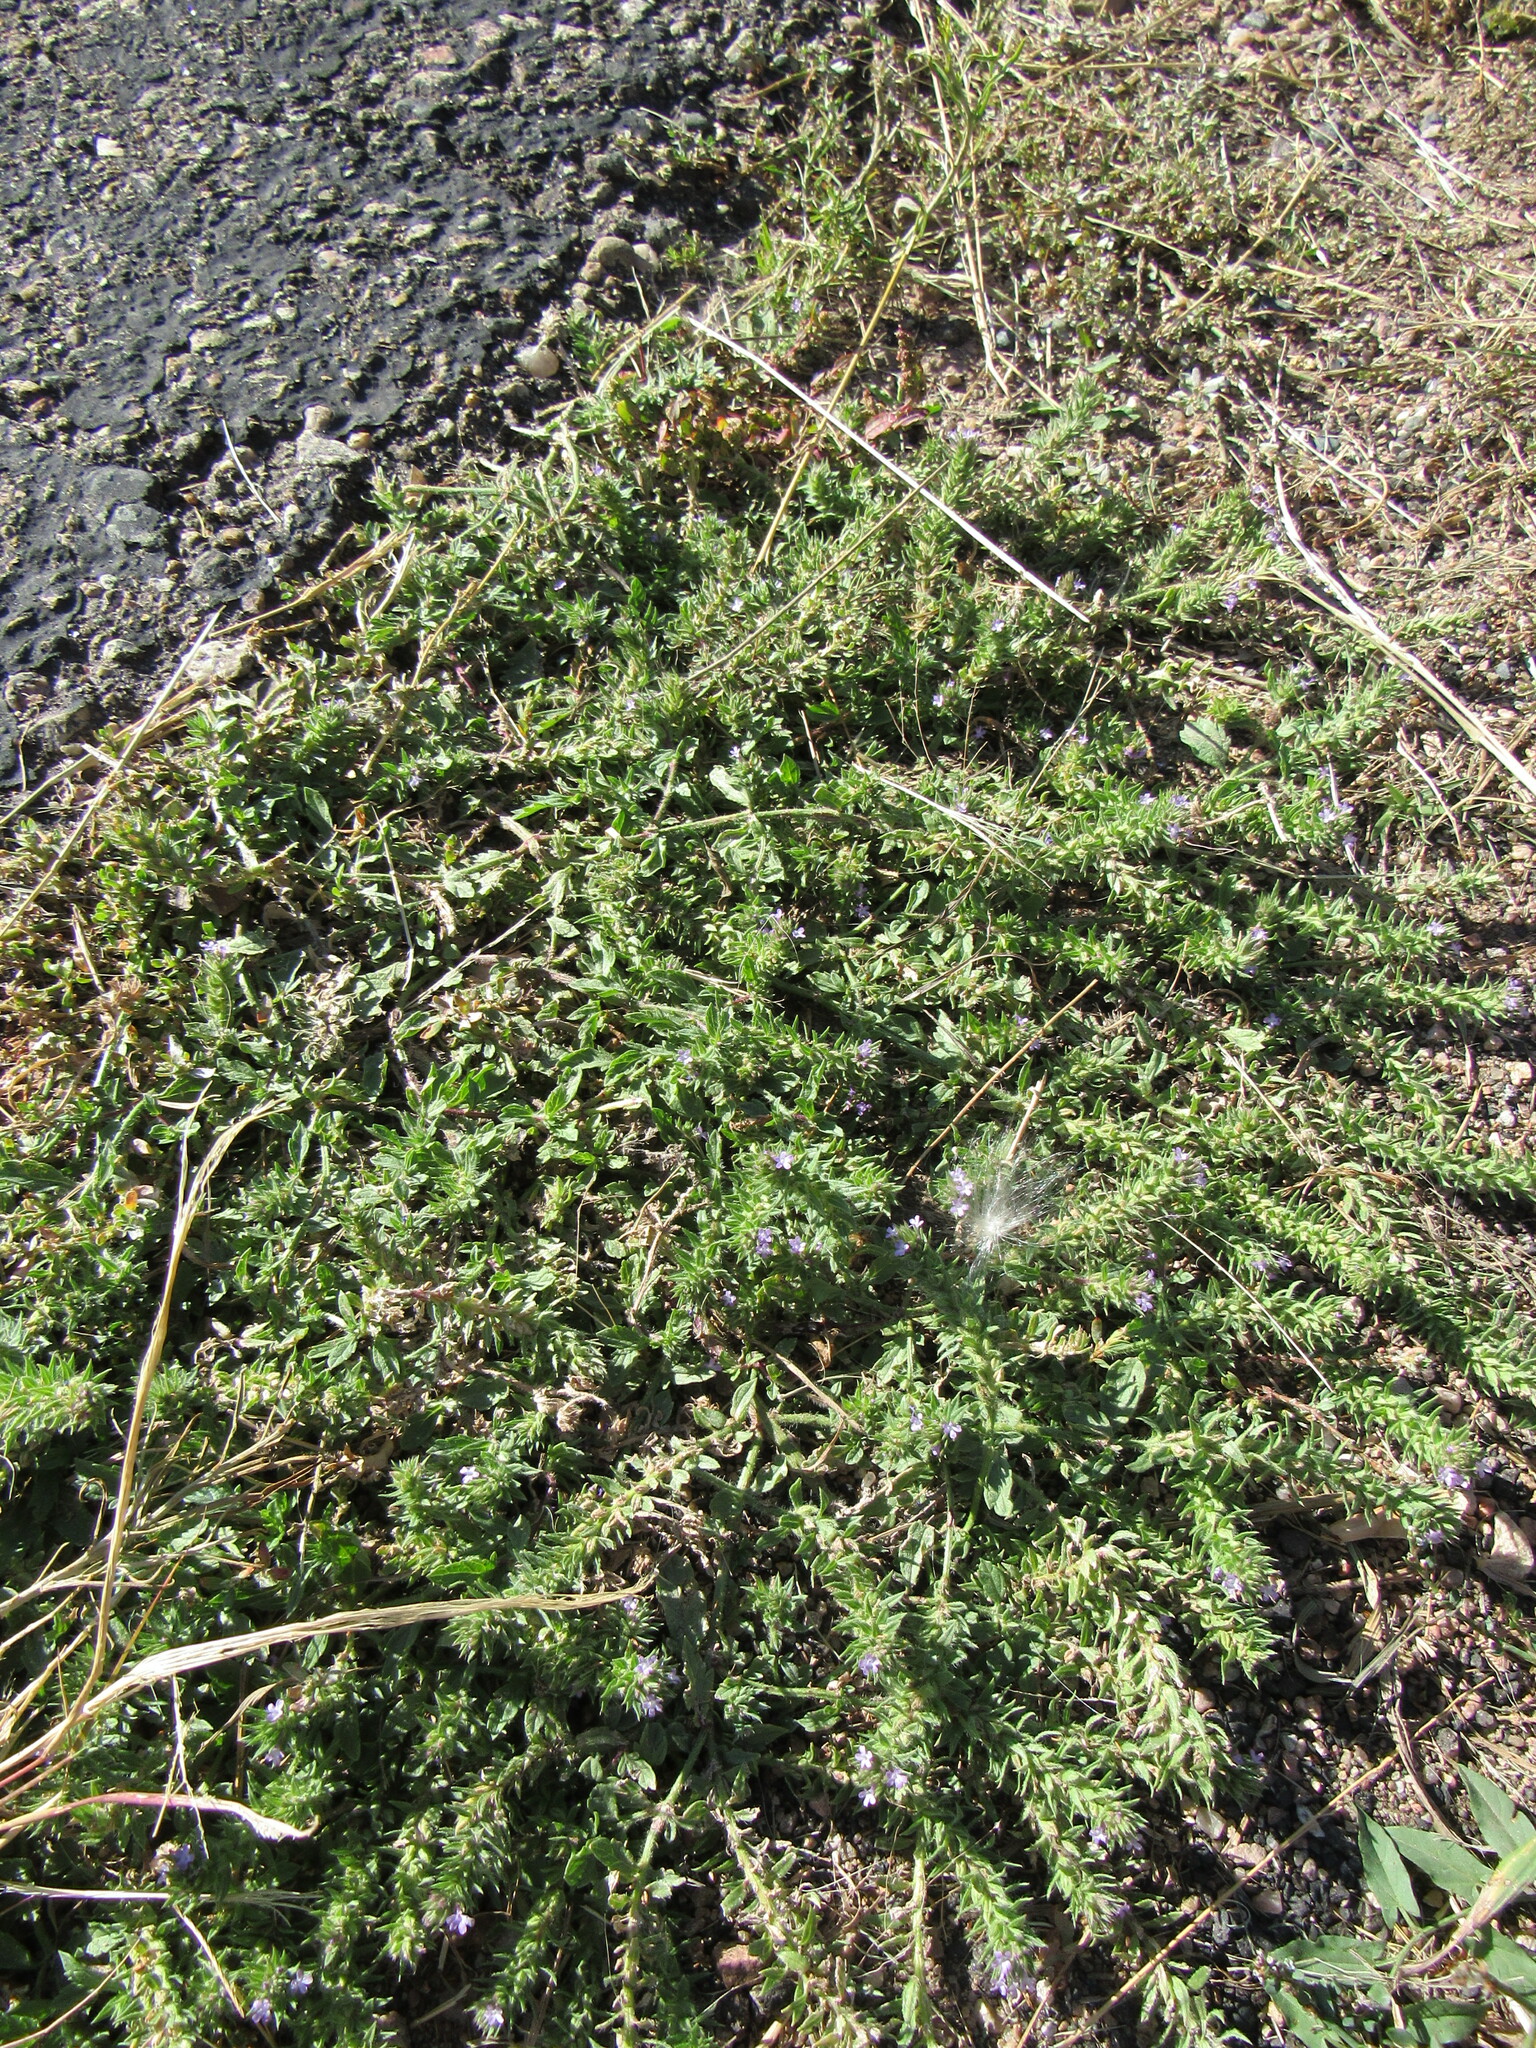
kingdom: Plantae
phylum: Tracheophyta
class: Magnoliopsida
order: Lamiales
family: Verbenaceae
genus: Verbena
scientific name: Verbena bracteata
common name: Bracted vervain
